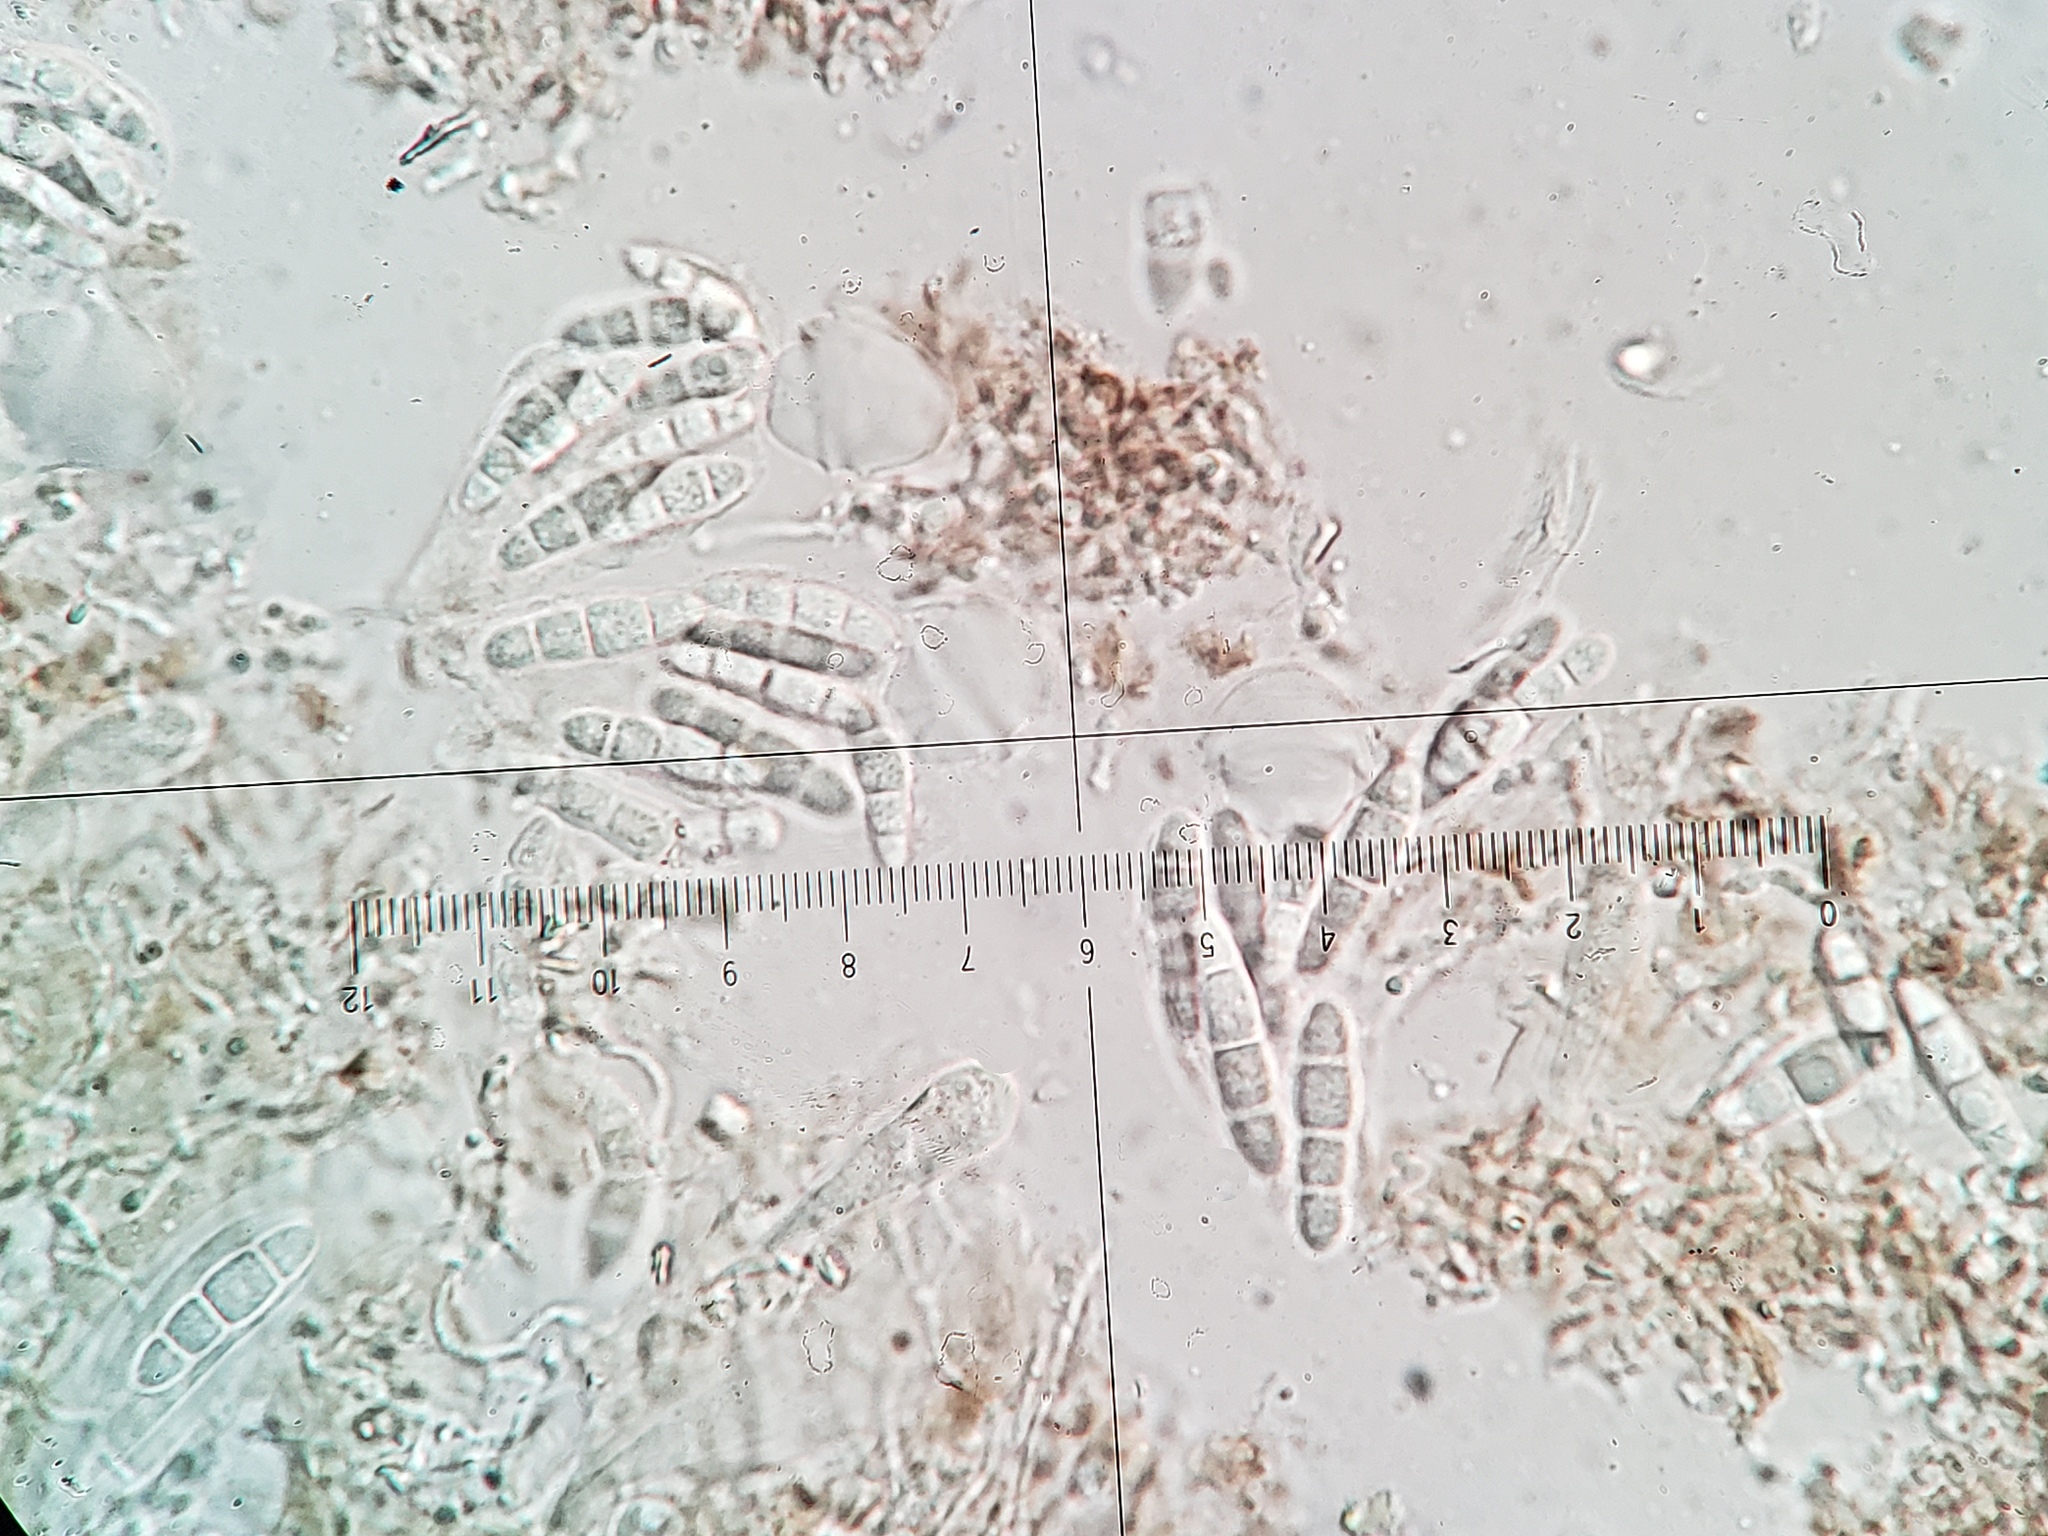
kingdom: Fungi
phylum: Ascomycota
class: Arthoniomycetes
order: Arthoniales
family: Chrysotrichaceae
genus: Chrysothrix
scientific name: Chrysothrix caesia
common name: Frosted comma lichen
